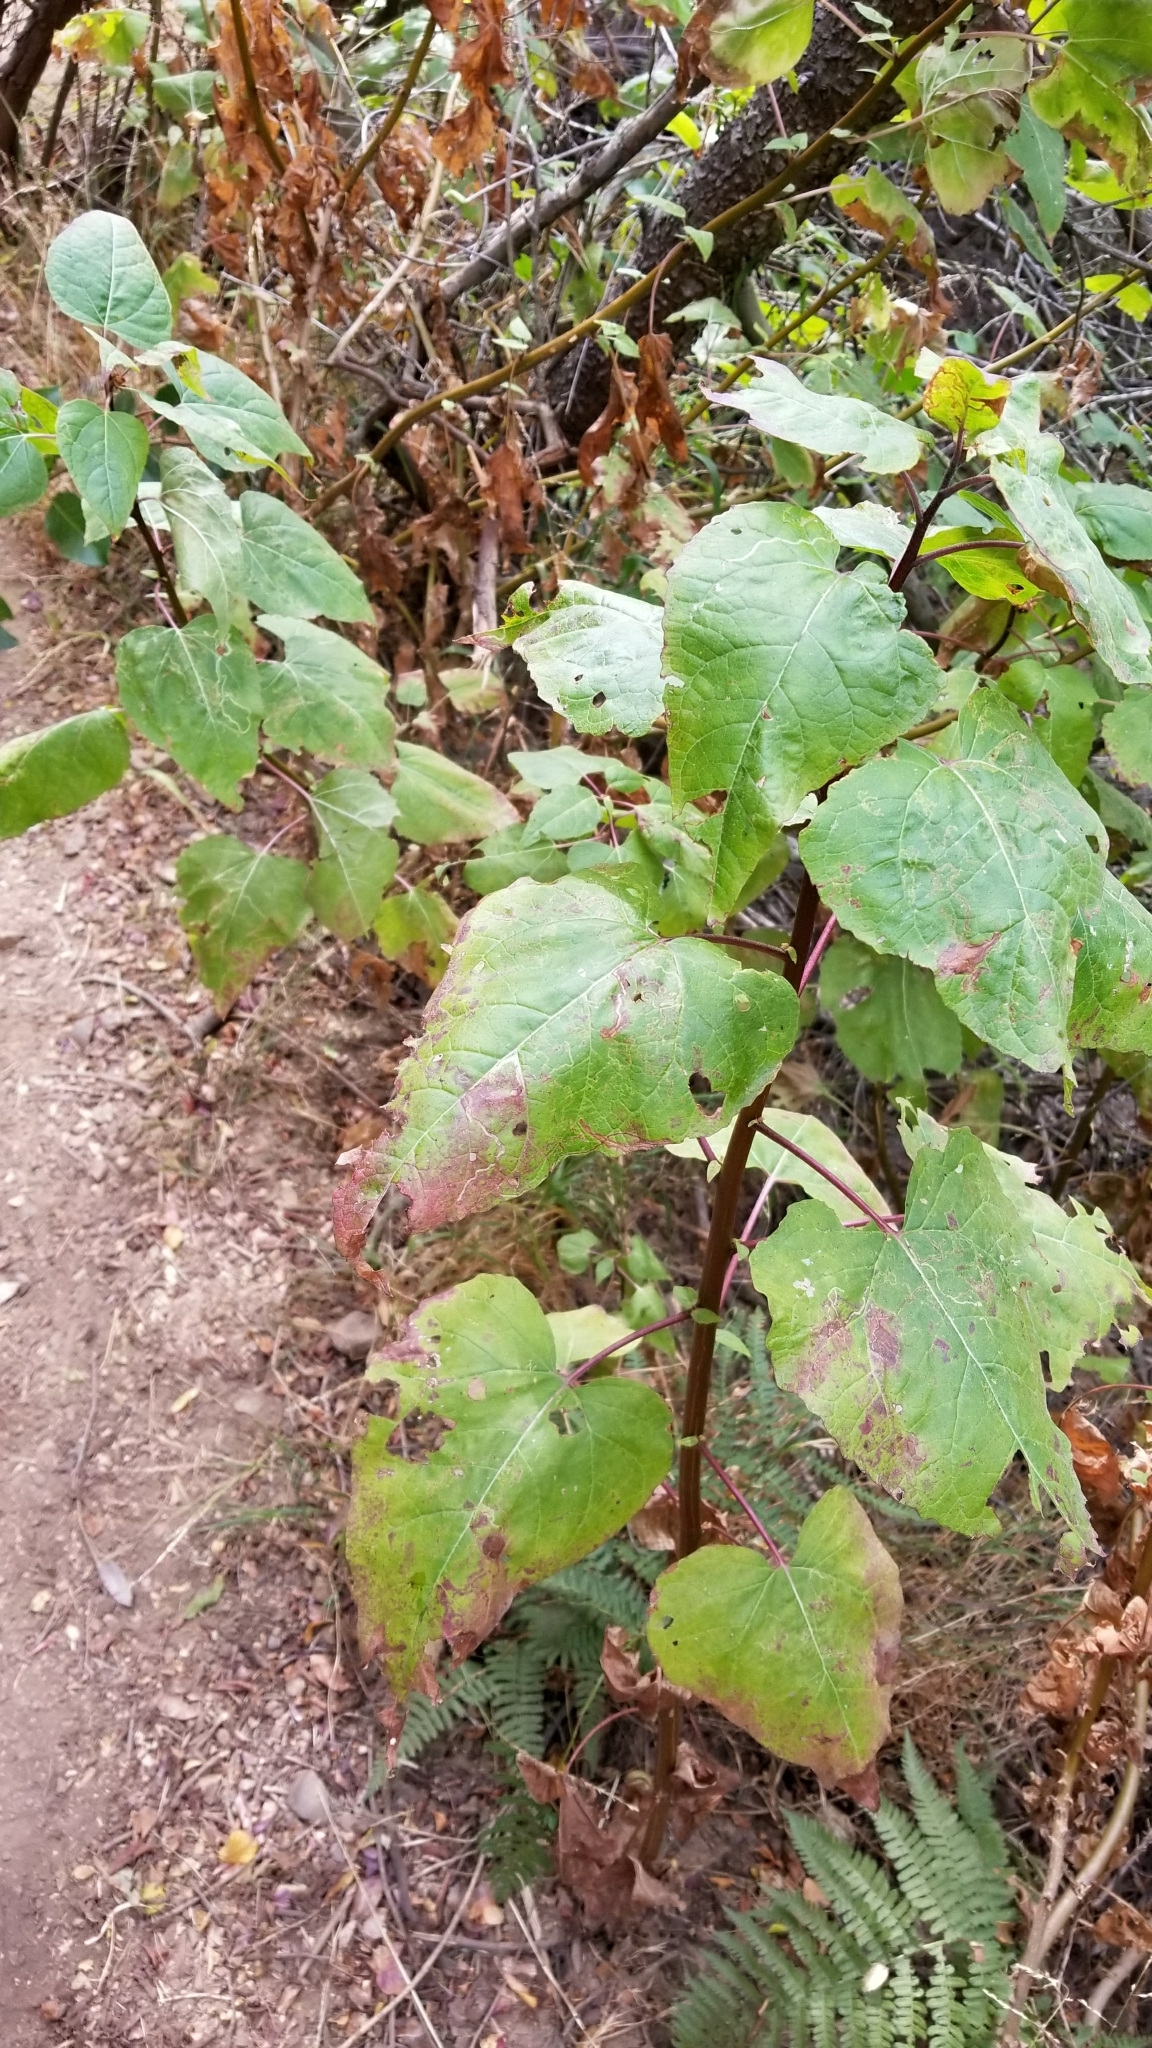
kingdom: Plantae
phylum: Tracheophyta
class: Magnoliopsida
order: Asterales
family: Asteraceae
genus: Venegasia
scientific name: Venegasia carpesioides
